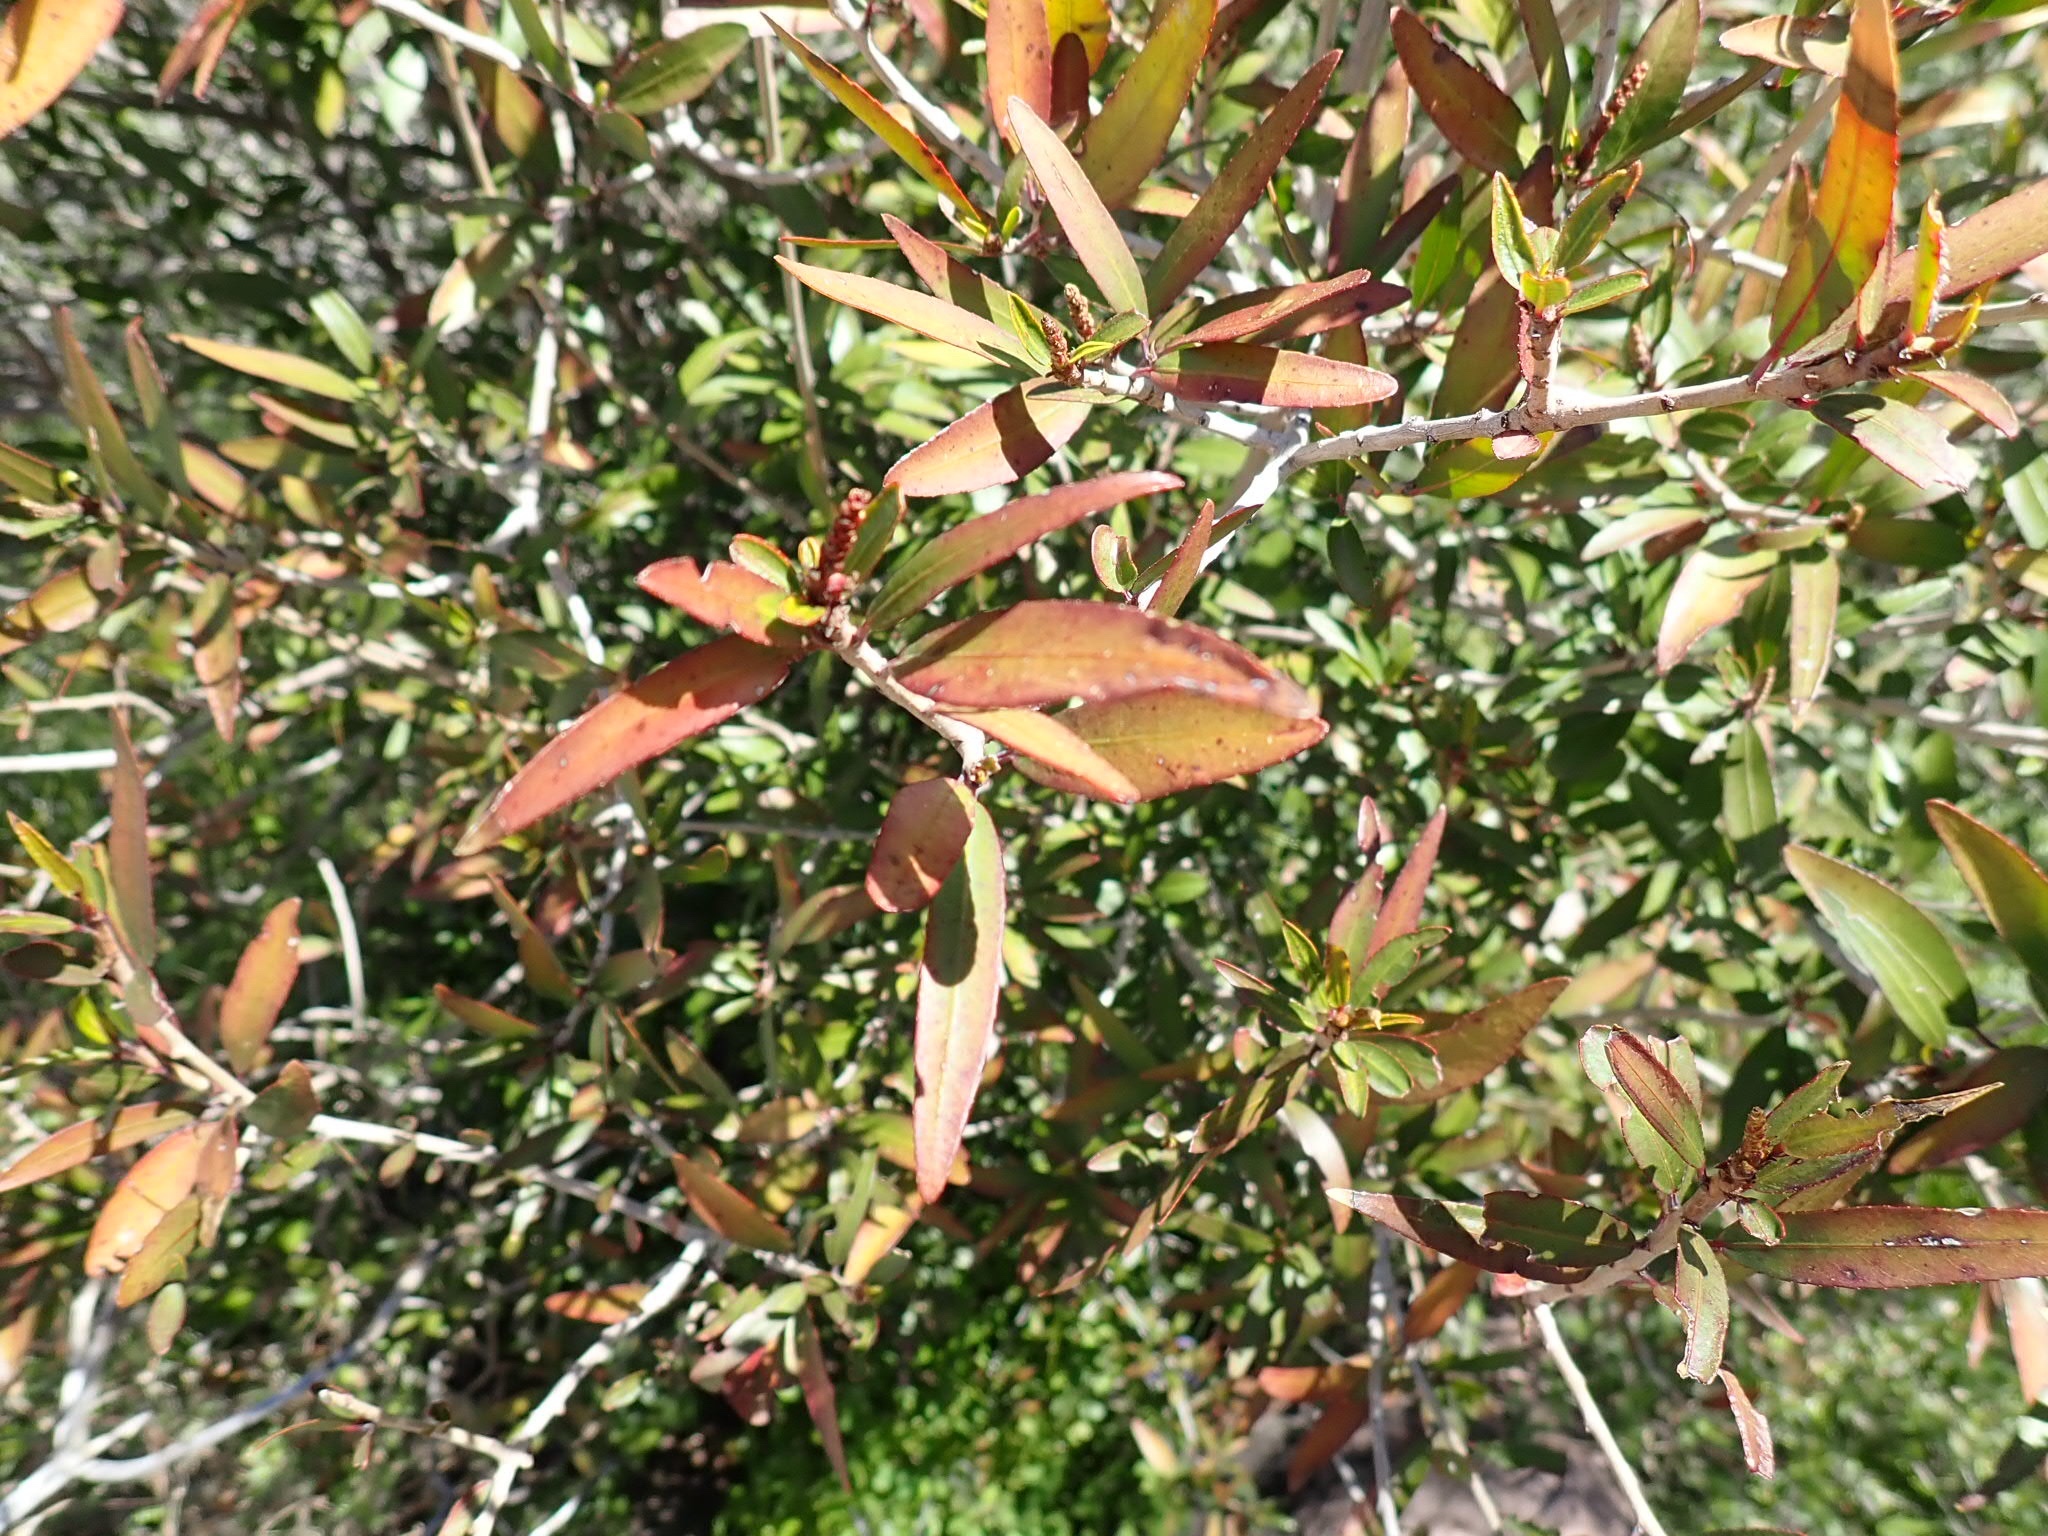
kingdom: Plantae
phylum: Tracheophyta
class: Magnoliopsida
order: Malpighiales
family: Euphorbiaceae
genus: Pleradenophora
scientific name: Pleradenophora bilocularis
